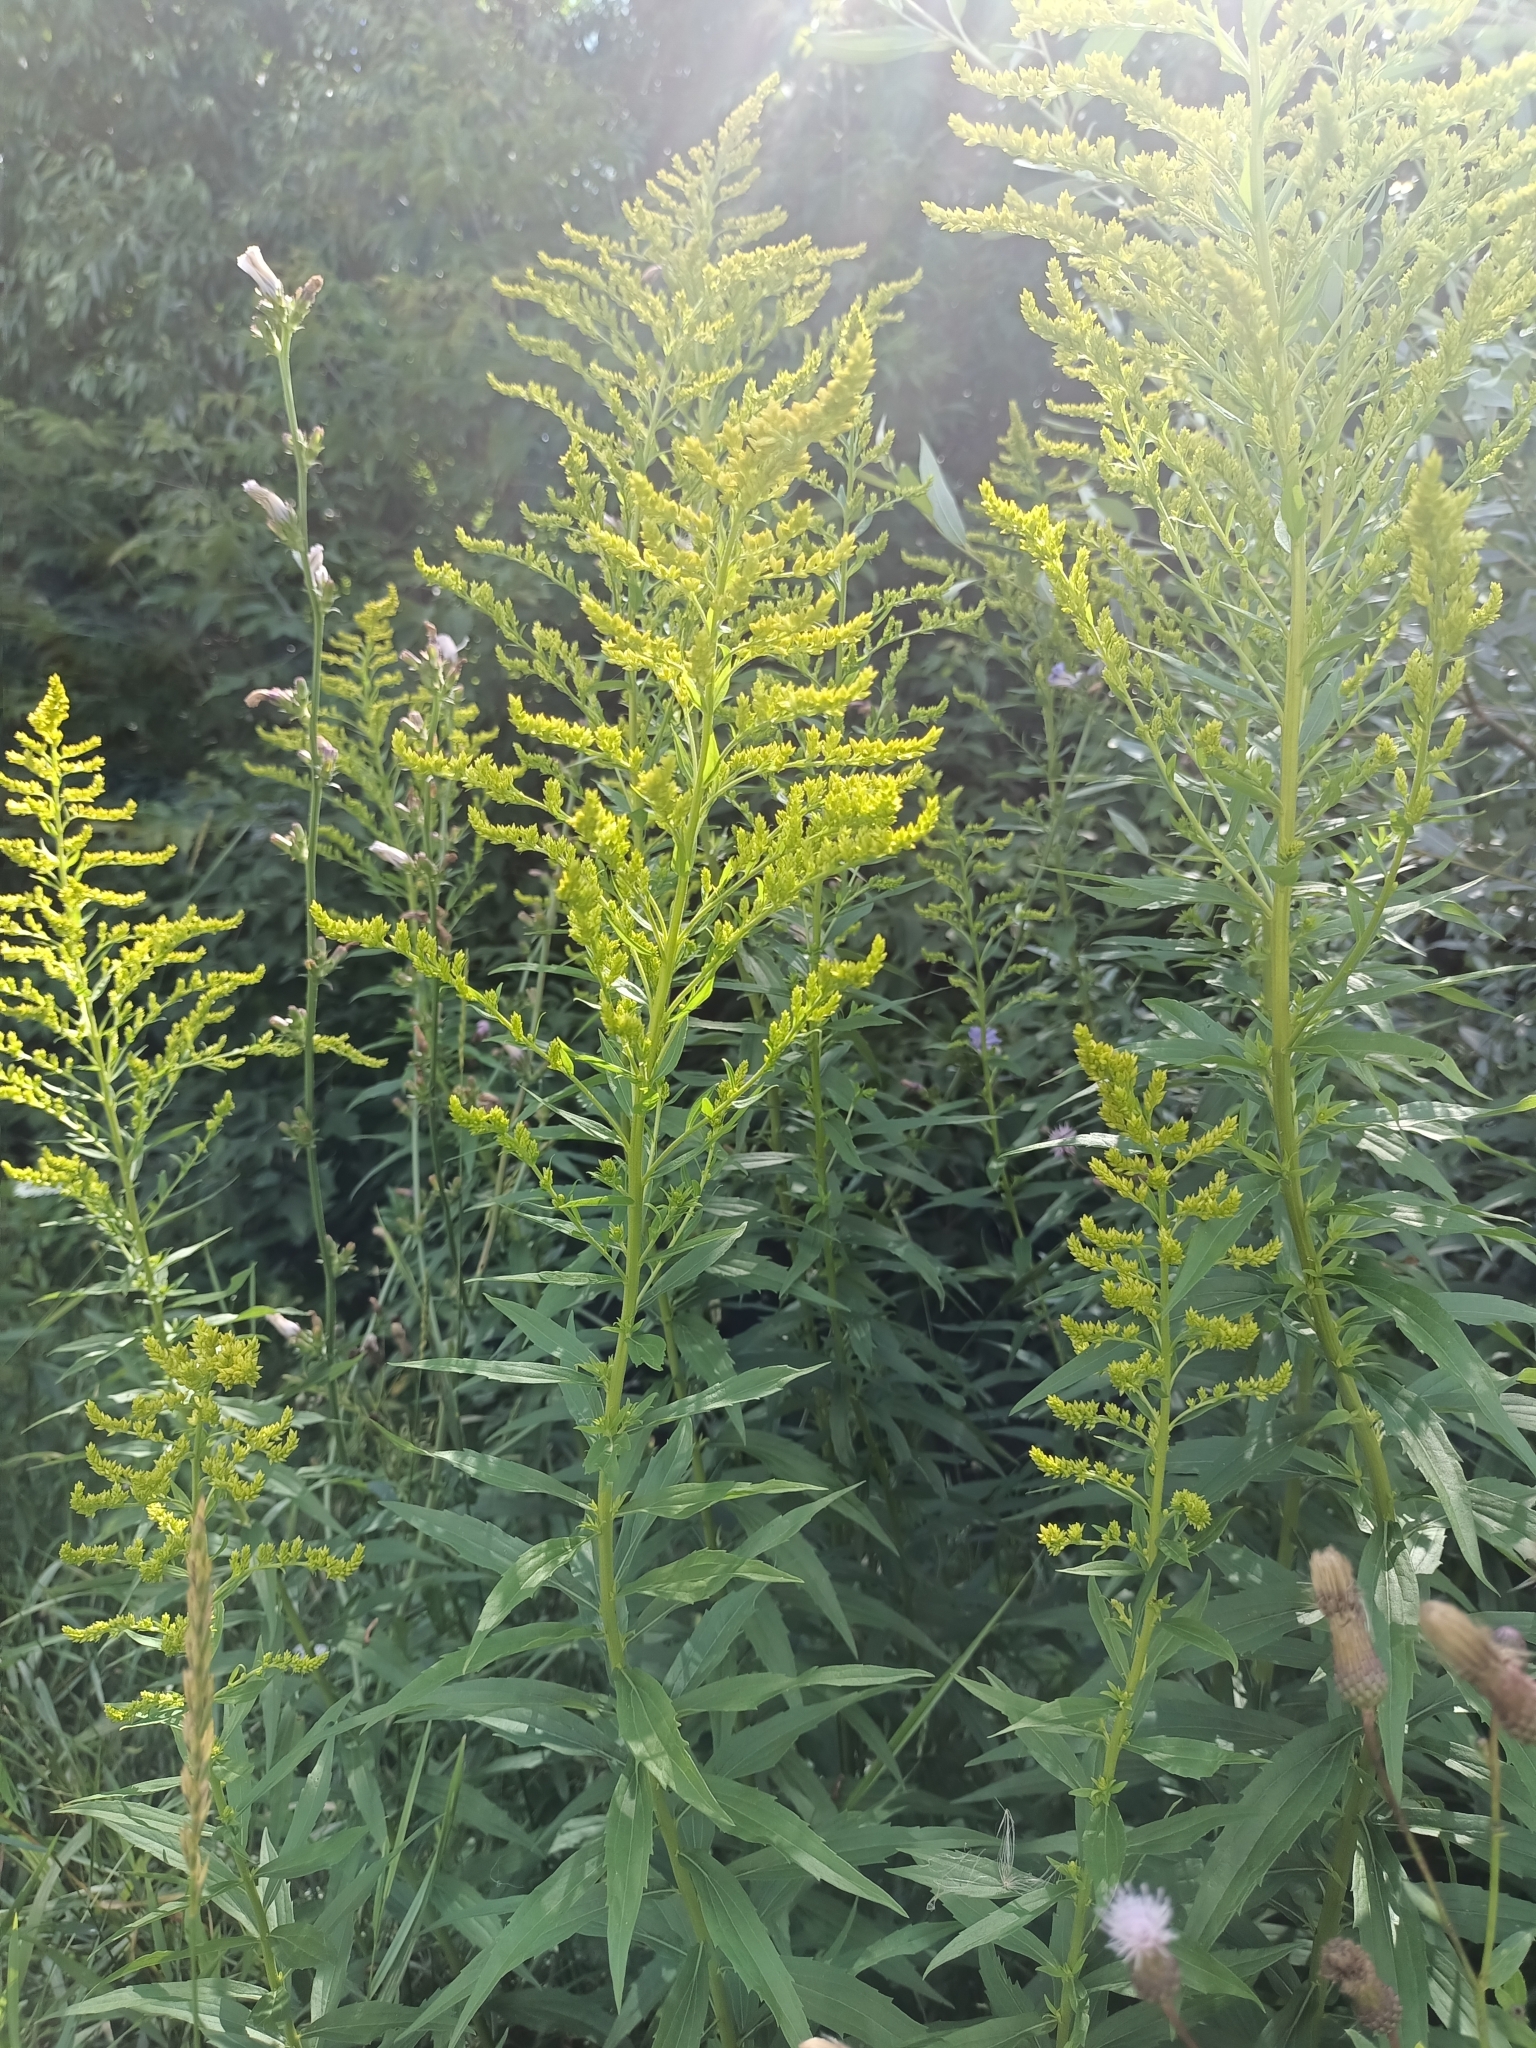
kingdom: Plantae
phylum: Tracheophyta
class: Magnoliopsida
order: Asterales
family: Asteraceae
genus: Solidago
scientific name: Solidago canadensis
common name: Canada goldenrod
